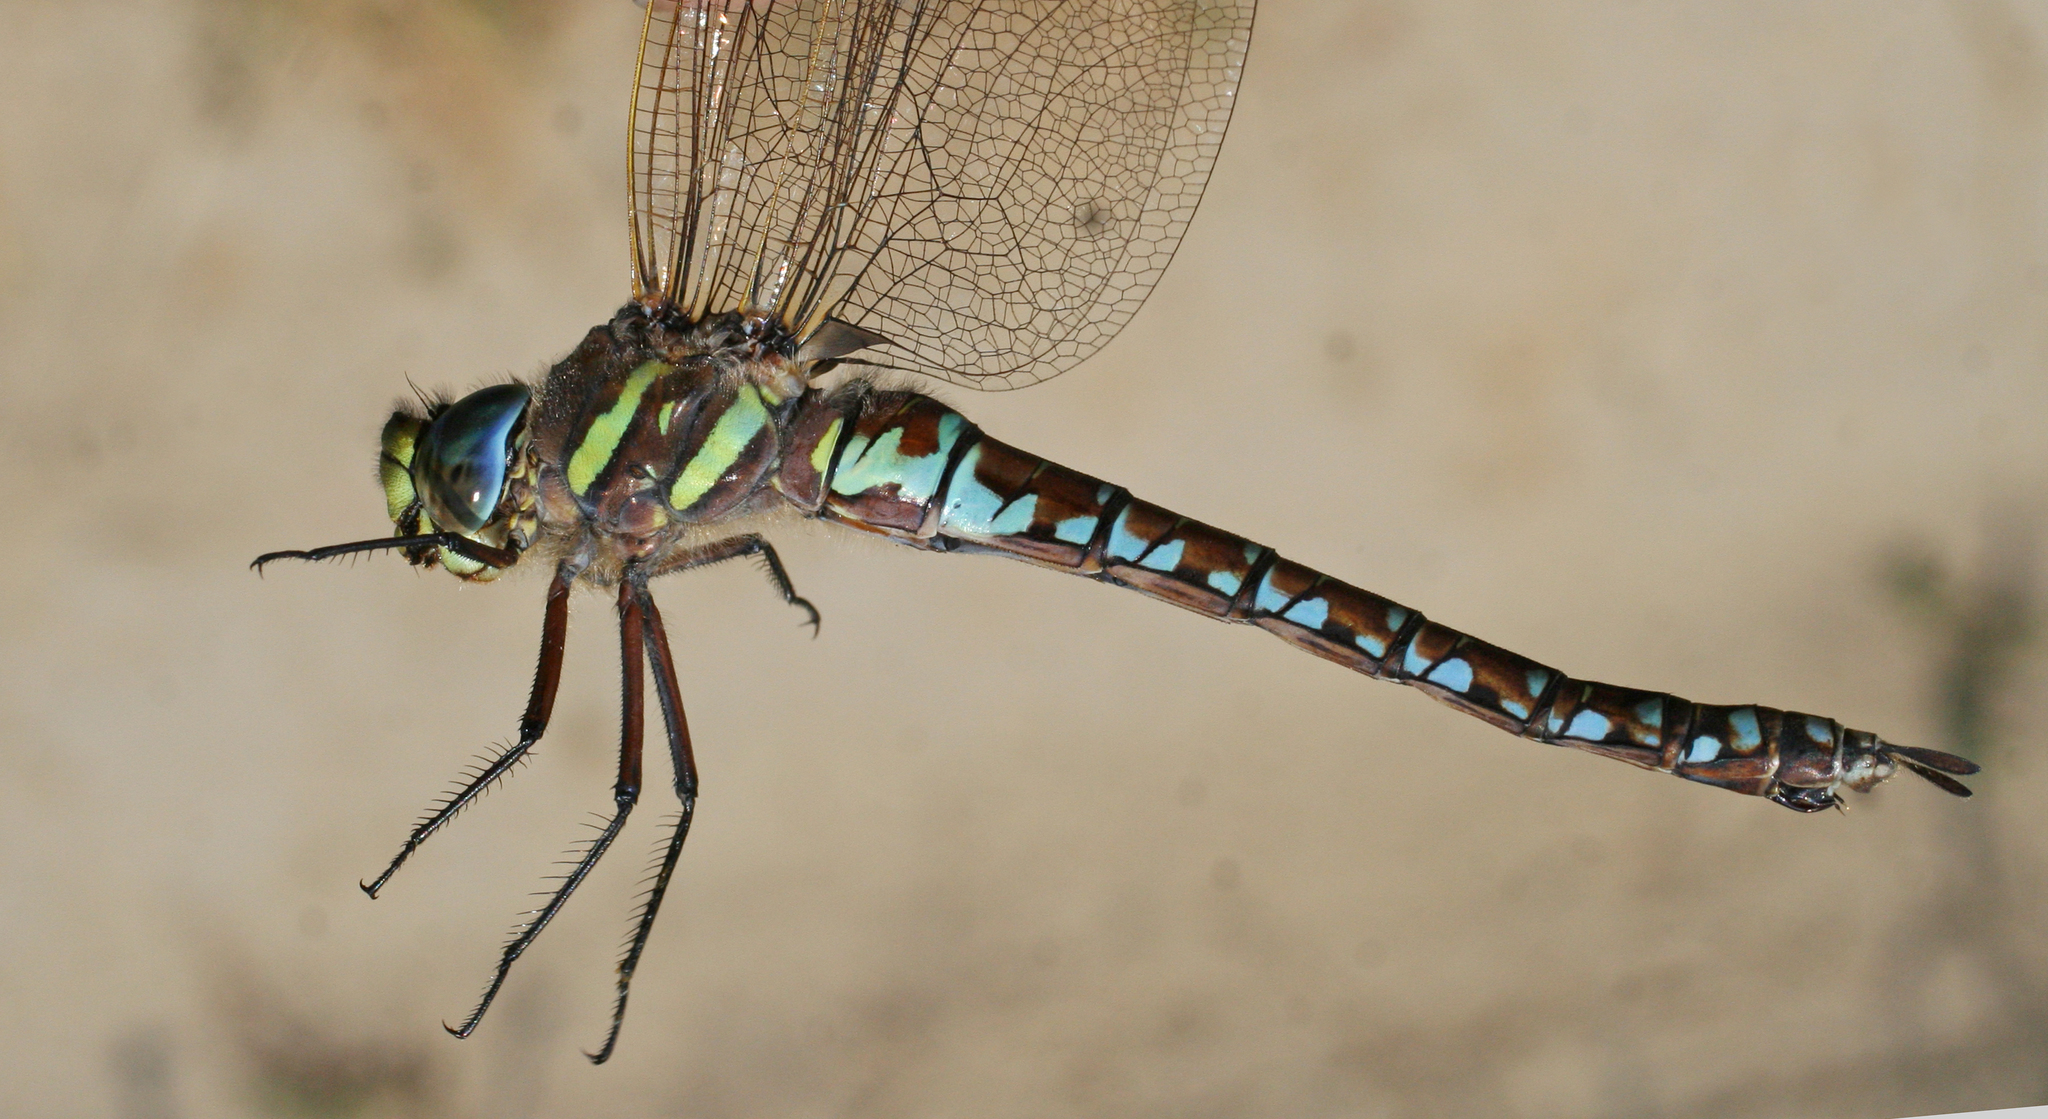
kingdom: Animalia
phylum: Arthropoda
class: Insecta
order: Odonata
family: Aeshnidae
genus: Aeshna
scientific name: Aeshna juncea
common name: Moorland hawker
